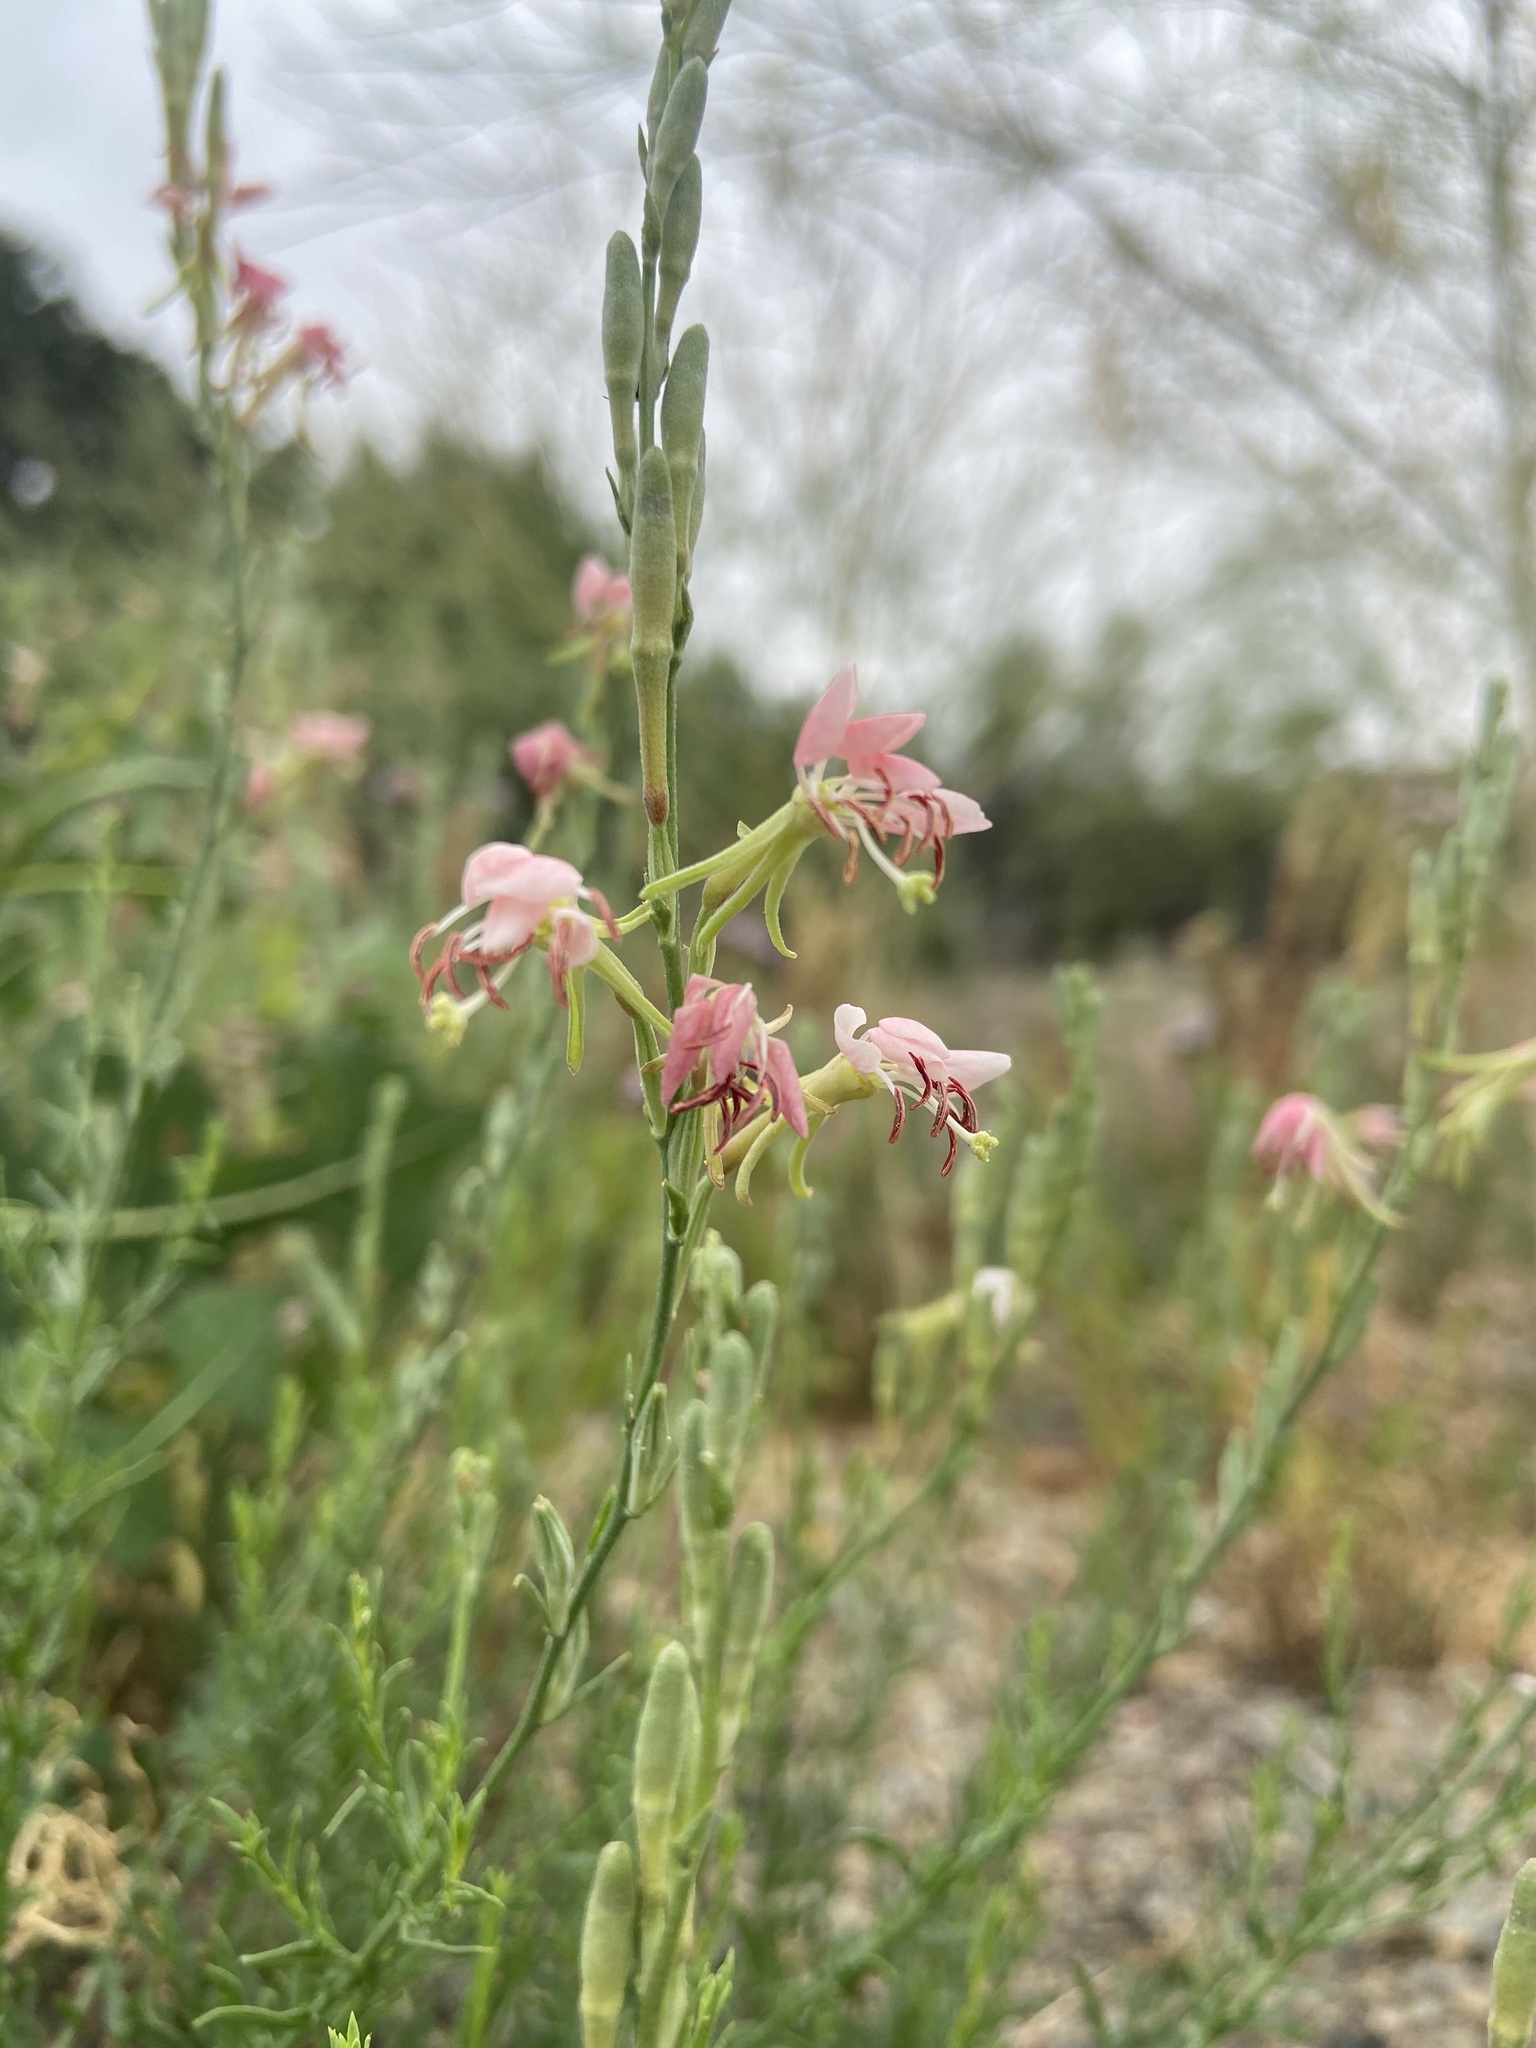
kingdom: Plantae
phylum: Tracheophyta
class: Magnoliopsida
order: Myrtales
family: Onagraceae
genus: Oenothera
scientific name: Oenothera suffrutescens
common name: Scarlet beeblossom
